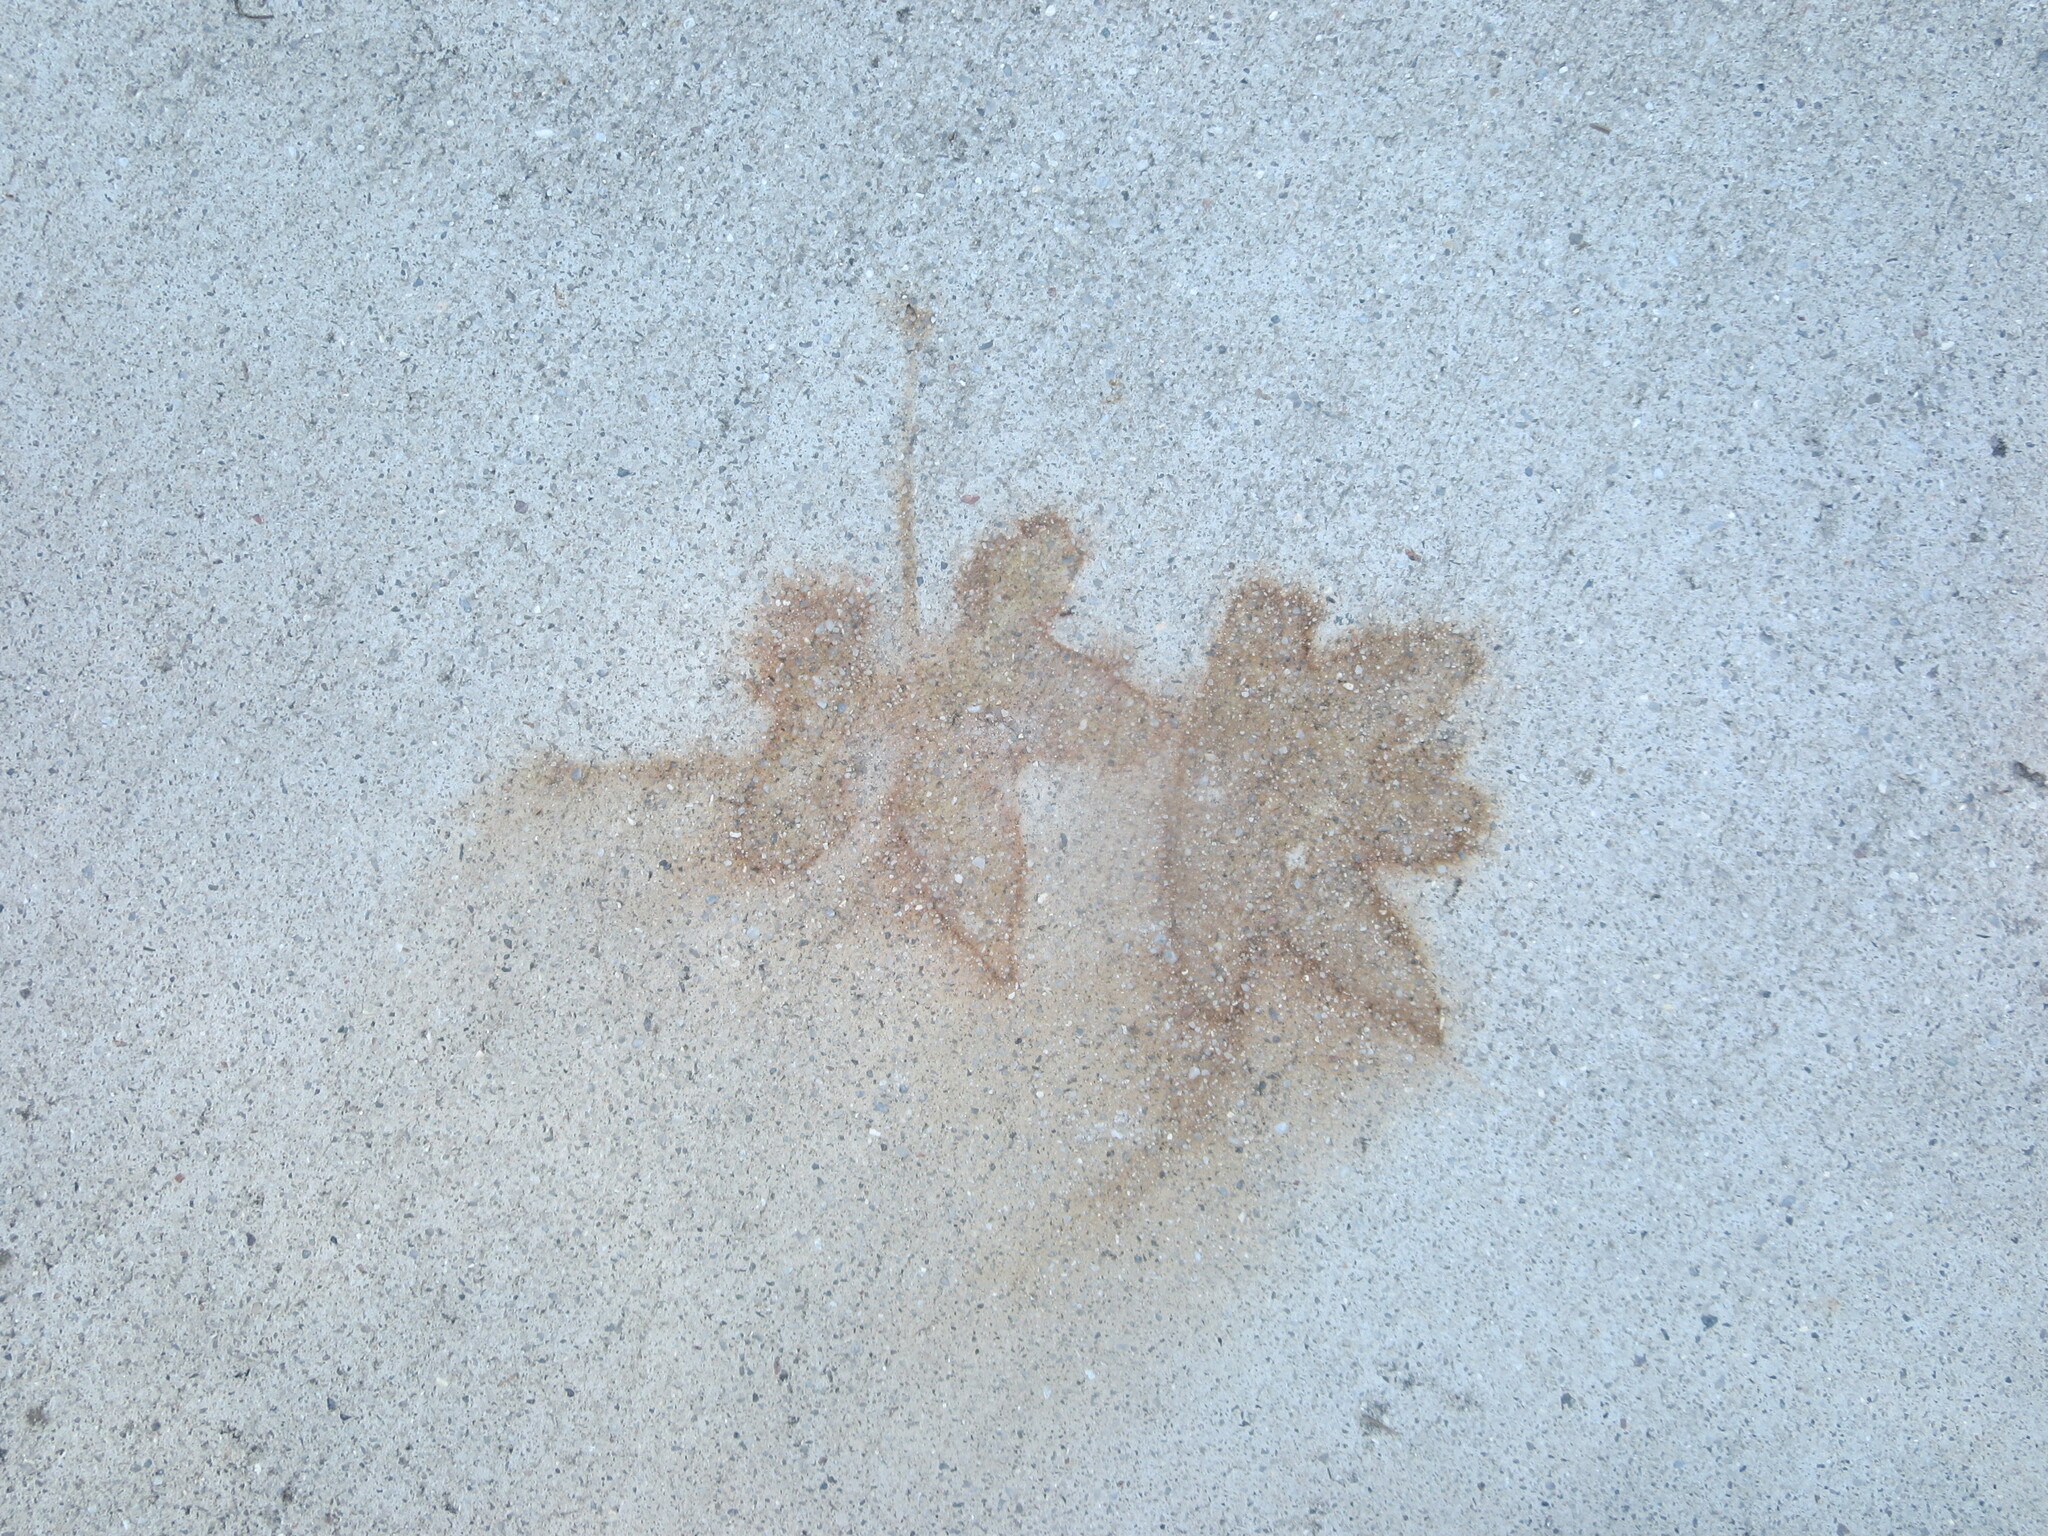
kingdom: Plantae
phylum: Tracheophyta
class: Magnoliopsida
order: Saxifragales
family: Altingiaceae
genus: Liquidambar
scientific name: Liquidambar styraciflua
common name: Sweet gum
